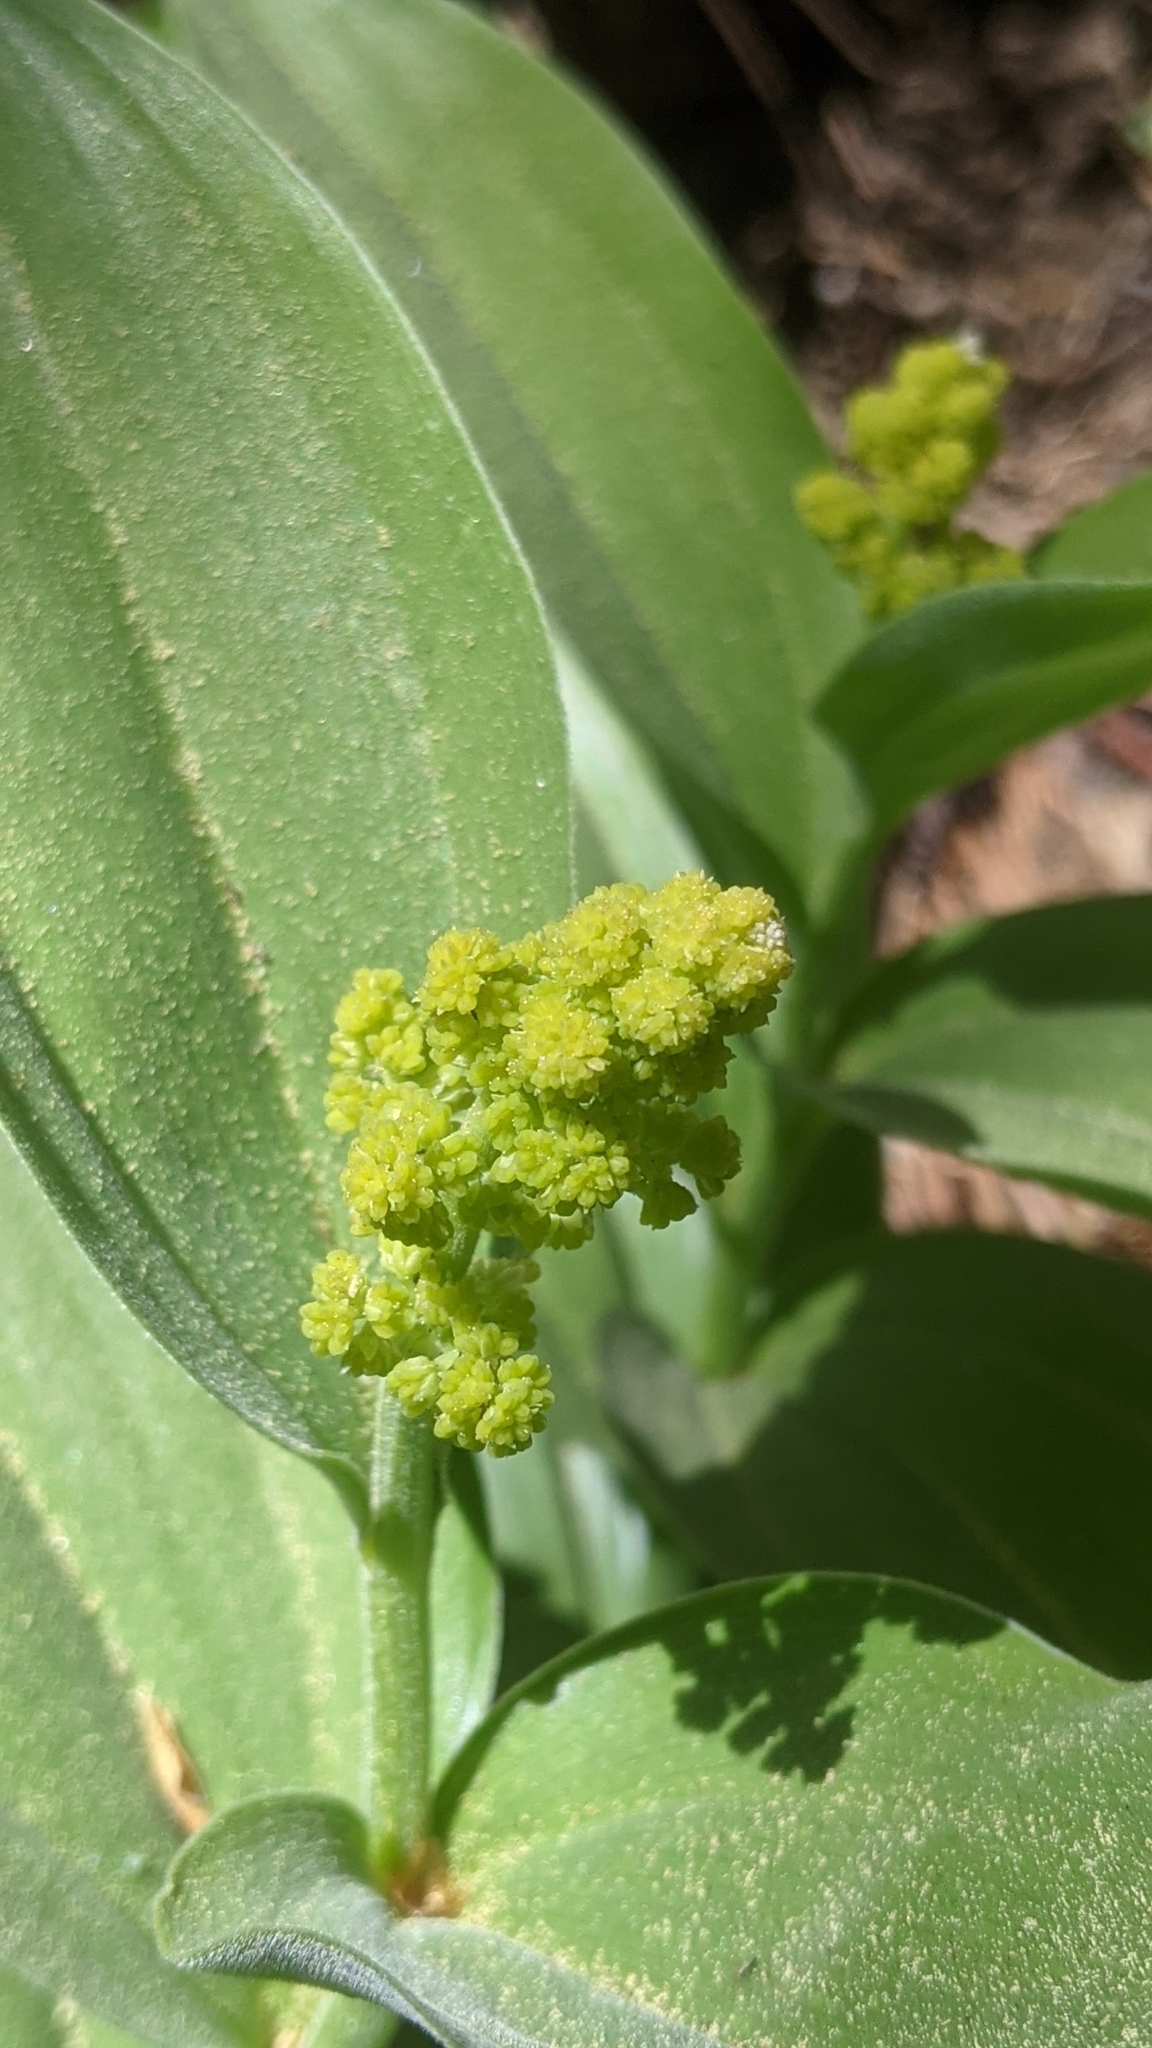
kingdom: Plantae
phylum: Tracheophyta
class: Liliopsida
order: Asparagales
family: Asparagaceae
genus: Maianthemum
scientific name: Maianthemum racemosum
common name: False spikenard
